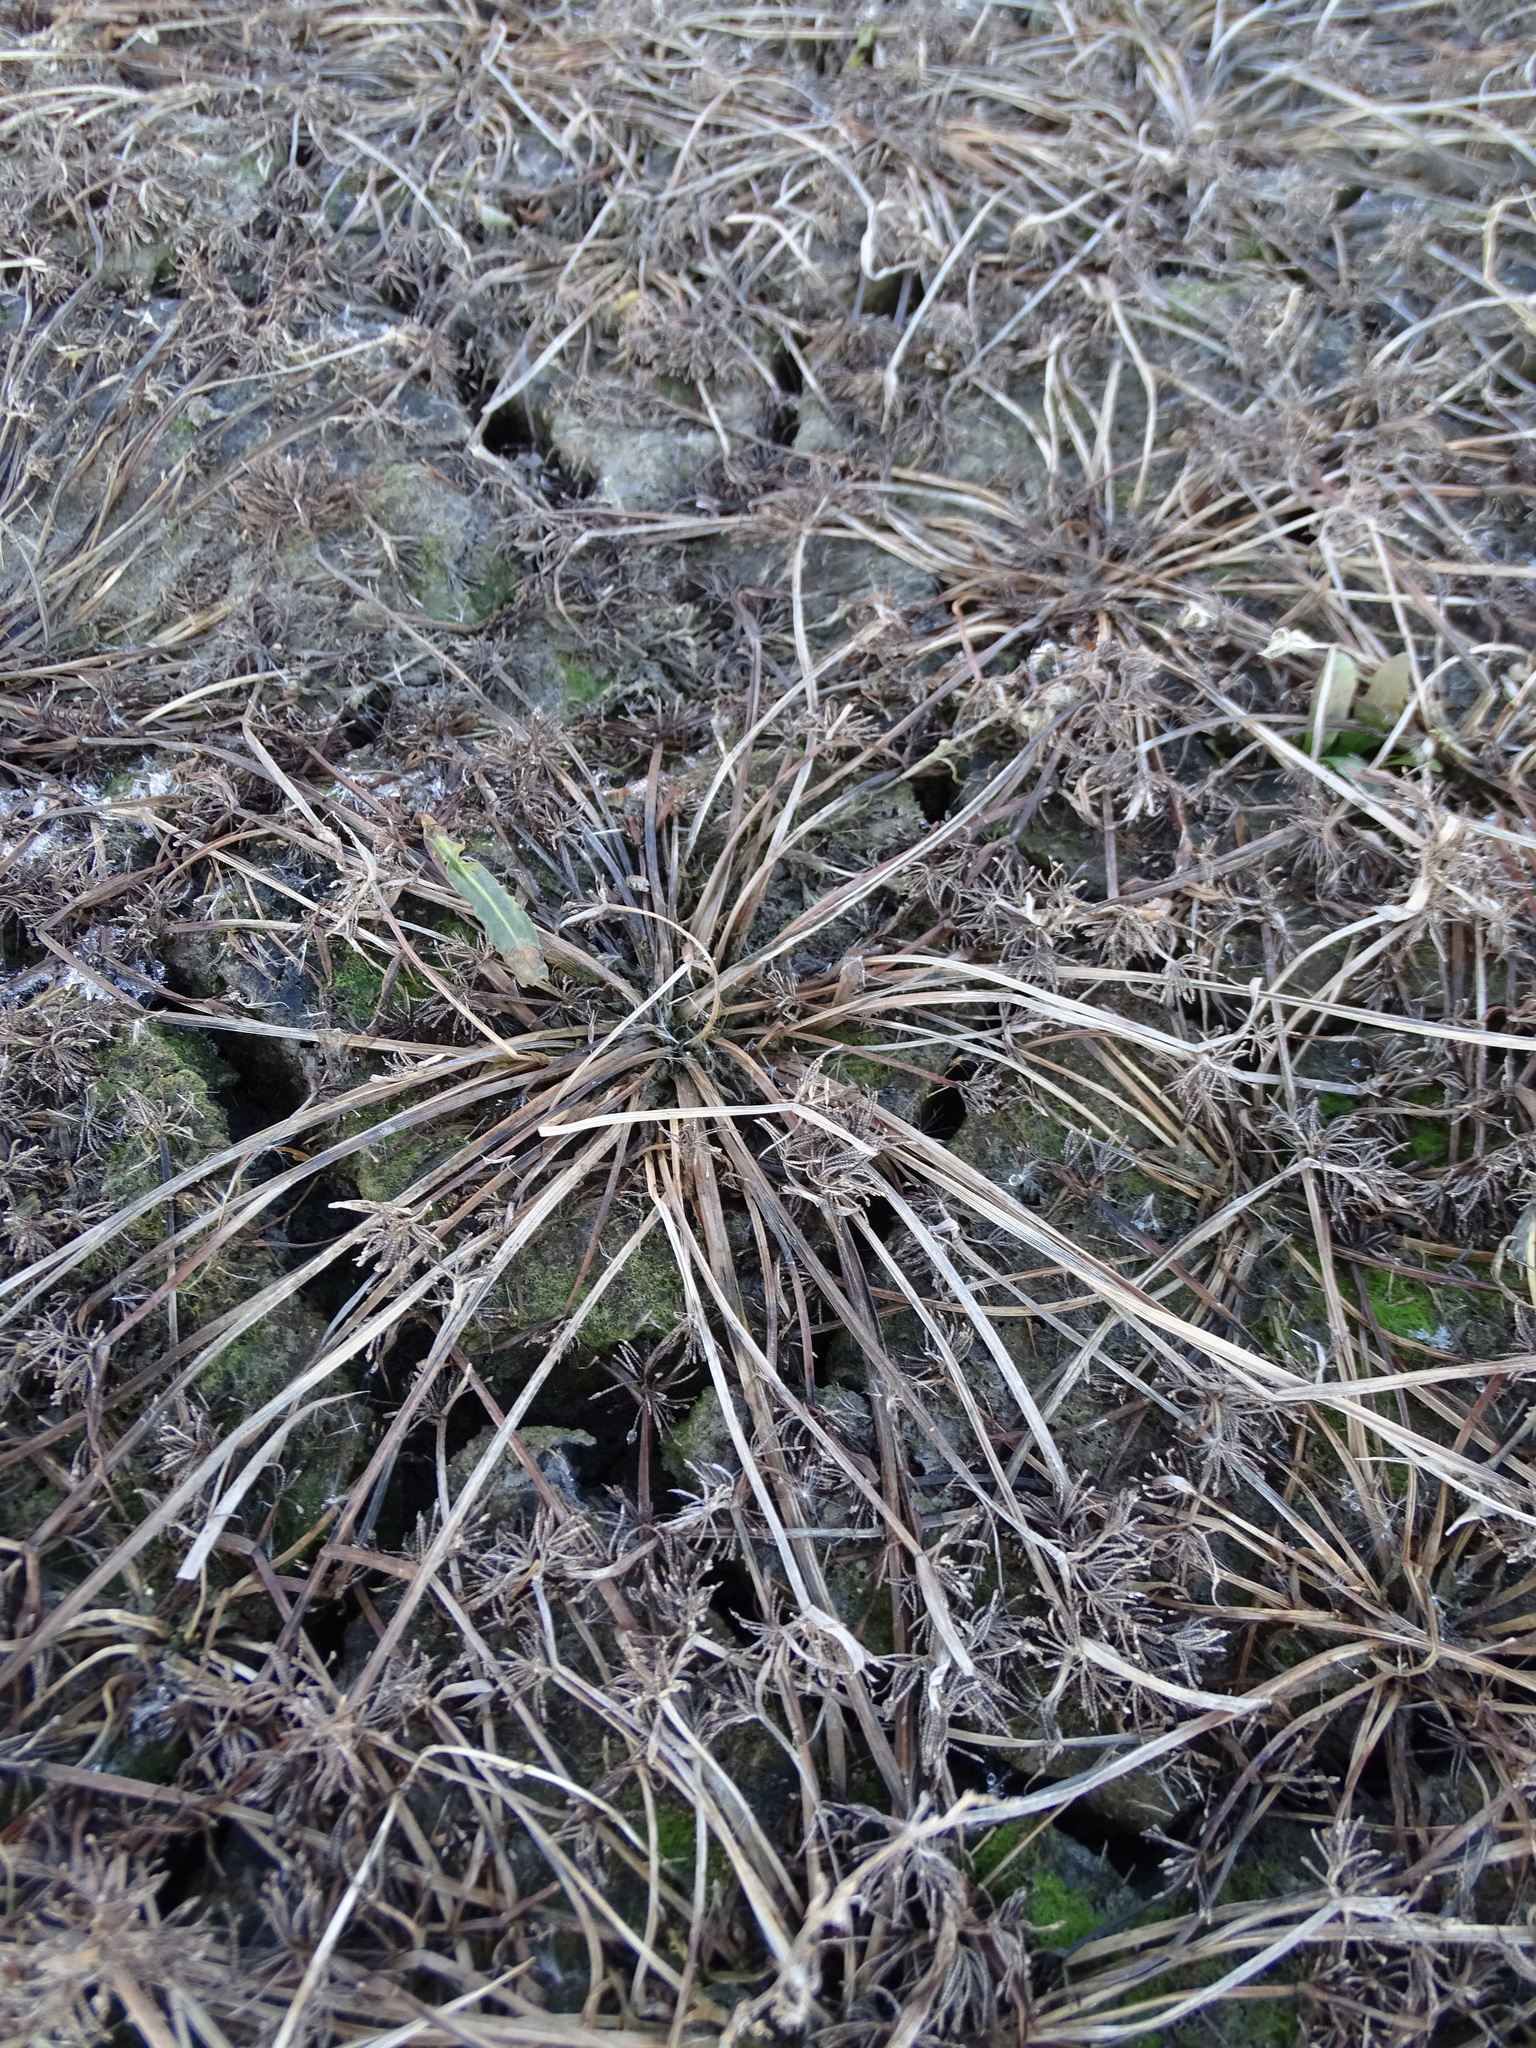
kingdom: Plantae
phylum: Tracheophyta
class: Liliopsida
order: Poales
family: Cyperaceae
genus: Cyperus
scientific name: Cyperus fuscus
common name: Brown galingale
